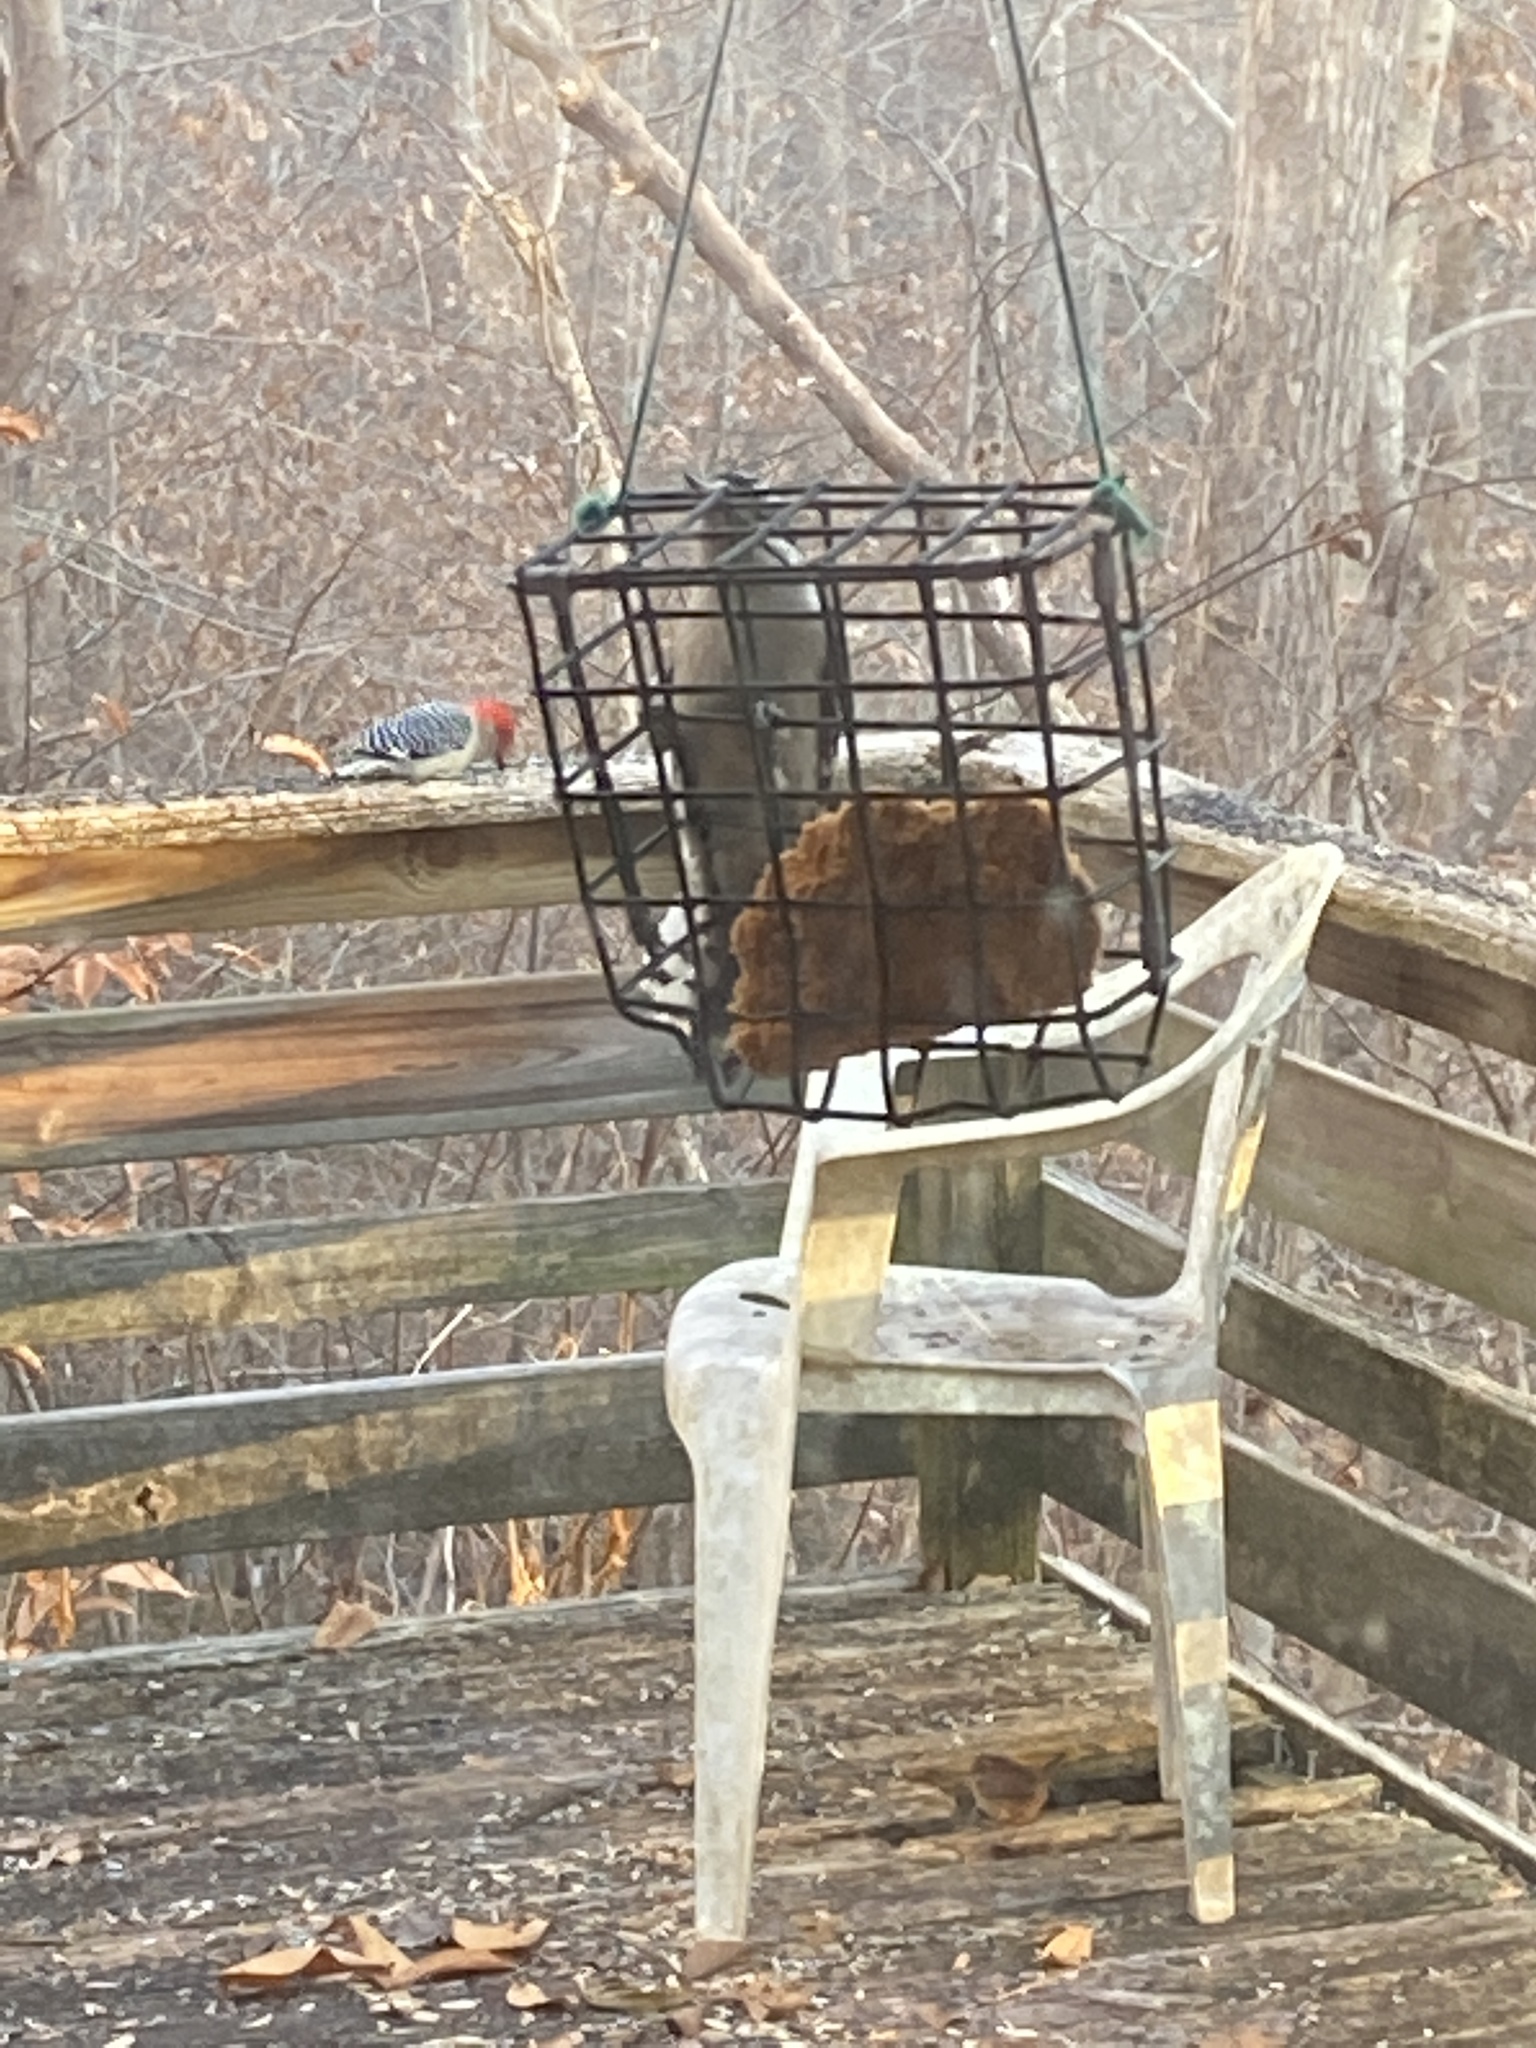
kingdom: Animalia
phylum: Chordata
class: Aves
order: Piciformes
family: Picidae
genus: Dryobates
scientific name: Dryobates pubescens
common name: Downy woodpecker
